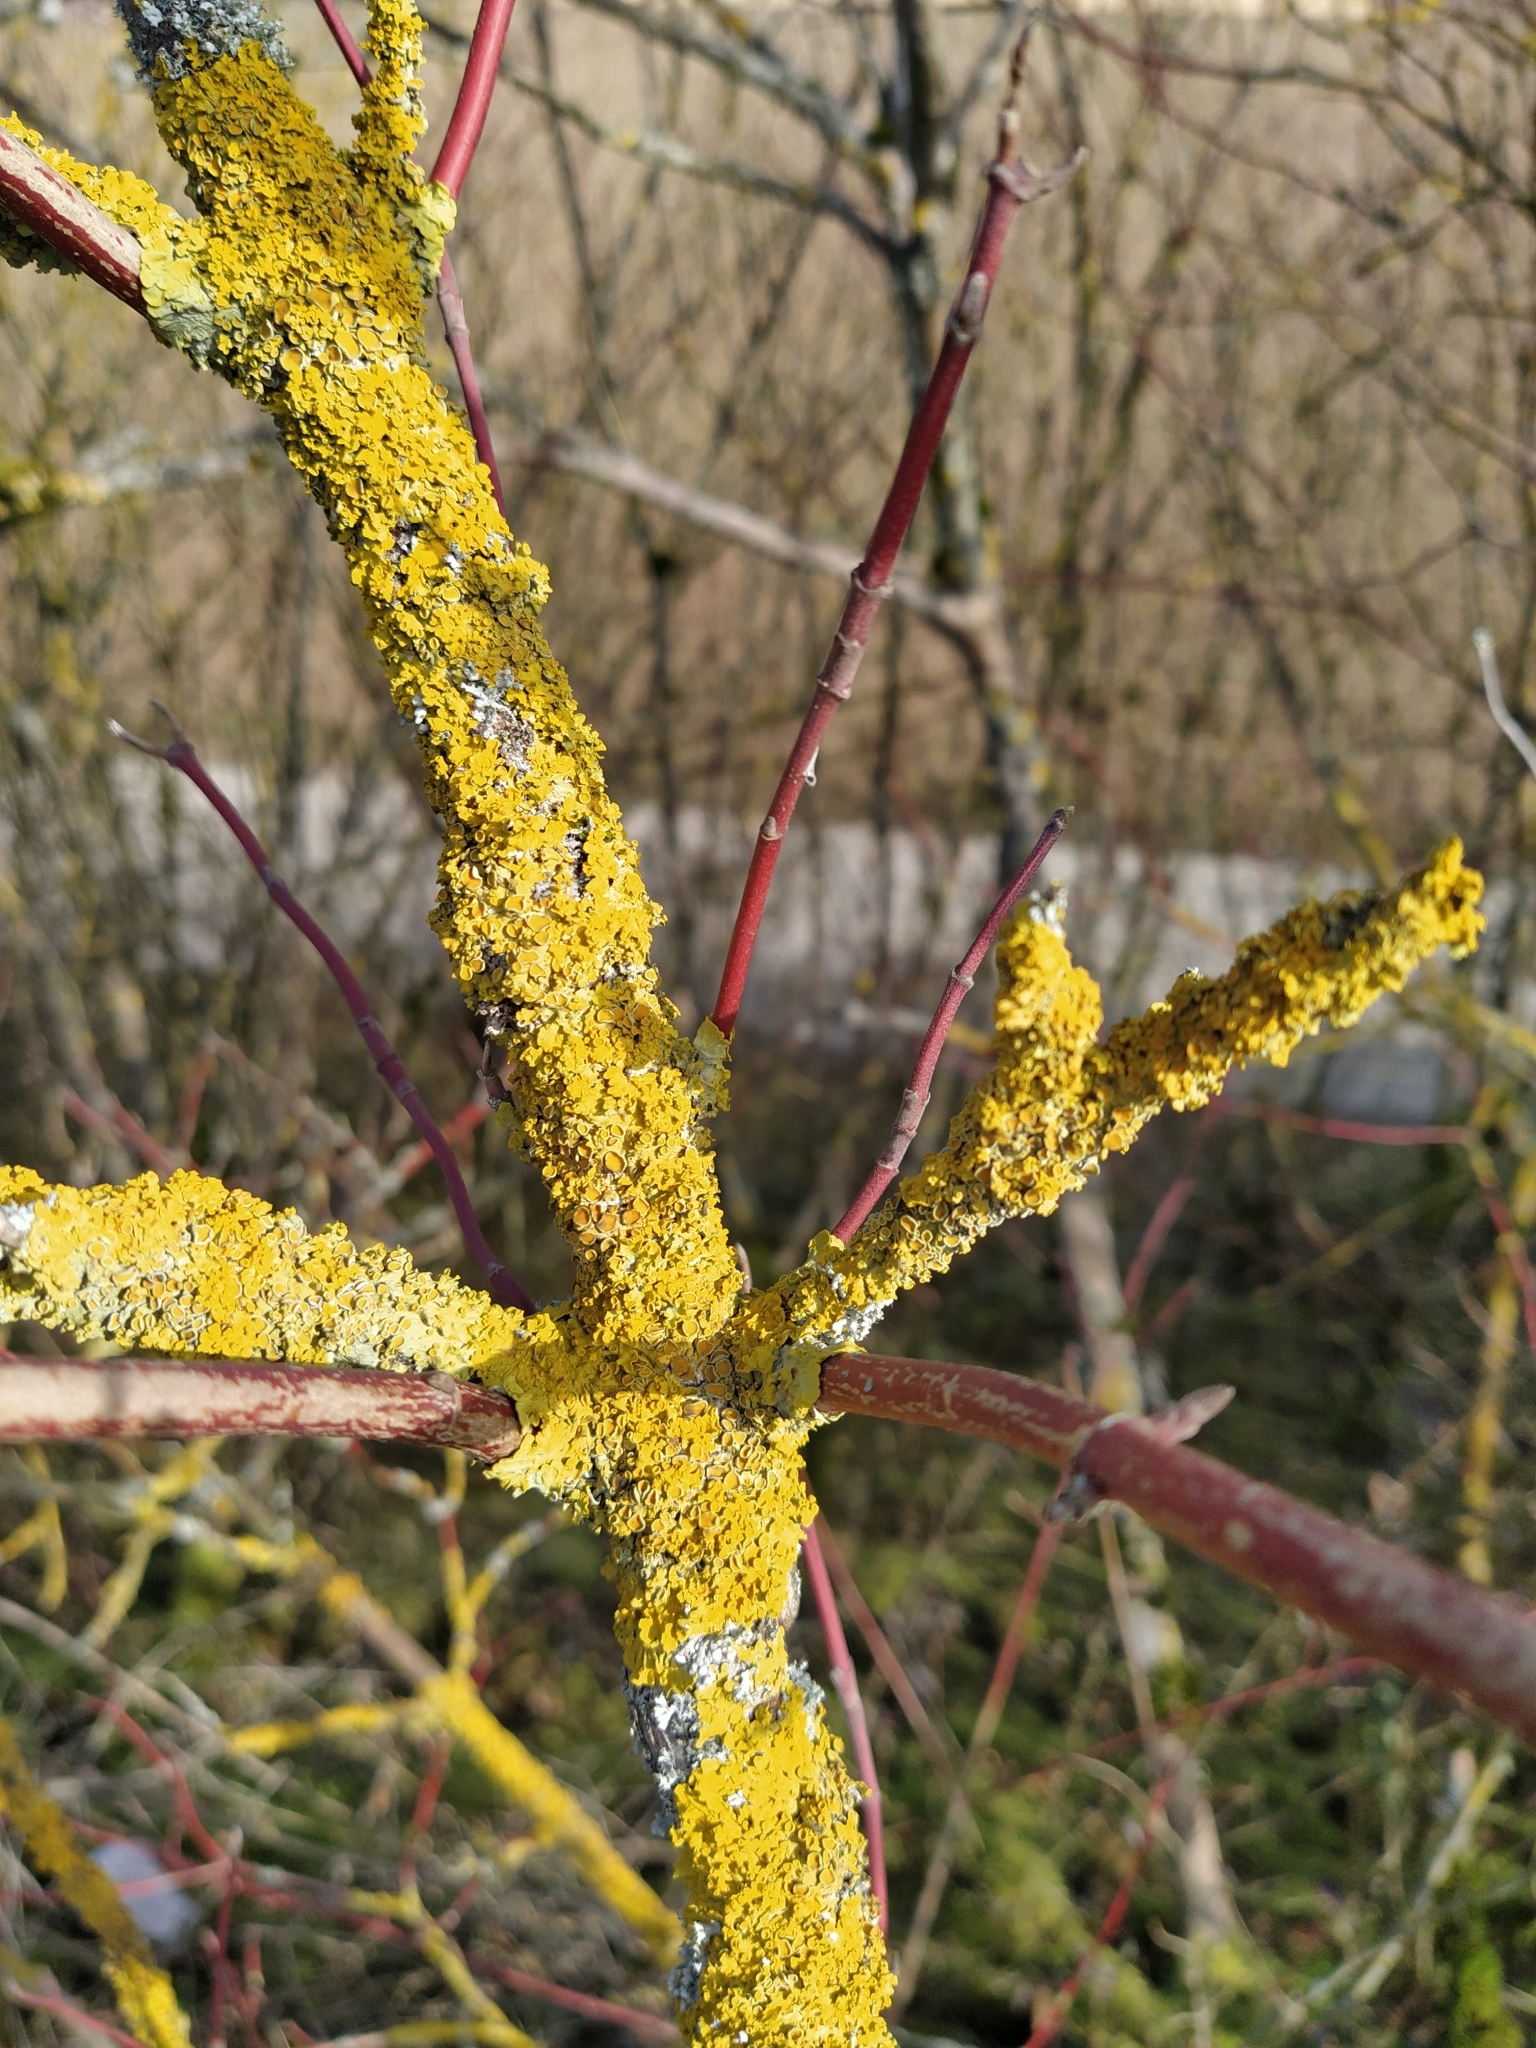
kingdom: Fungi
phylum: Ascomycota
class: Lecanoromycetes
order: Teloschistales
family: Teloschistaceae
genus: Xanthoria
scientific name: Xanthoria parietina
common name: Common orange lichen
